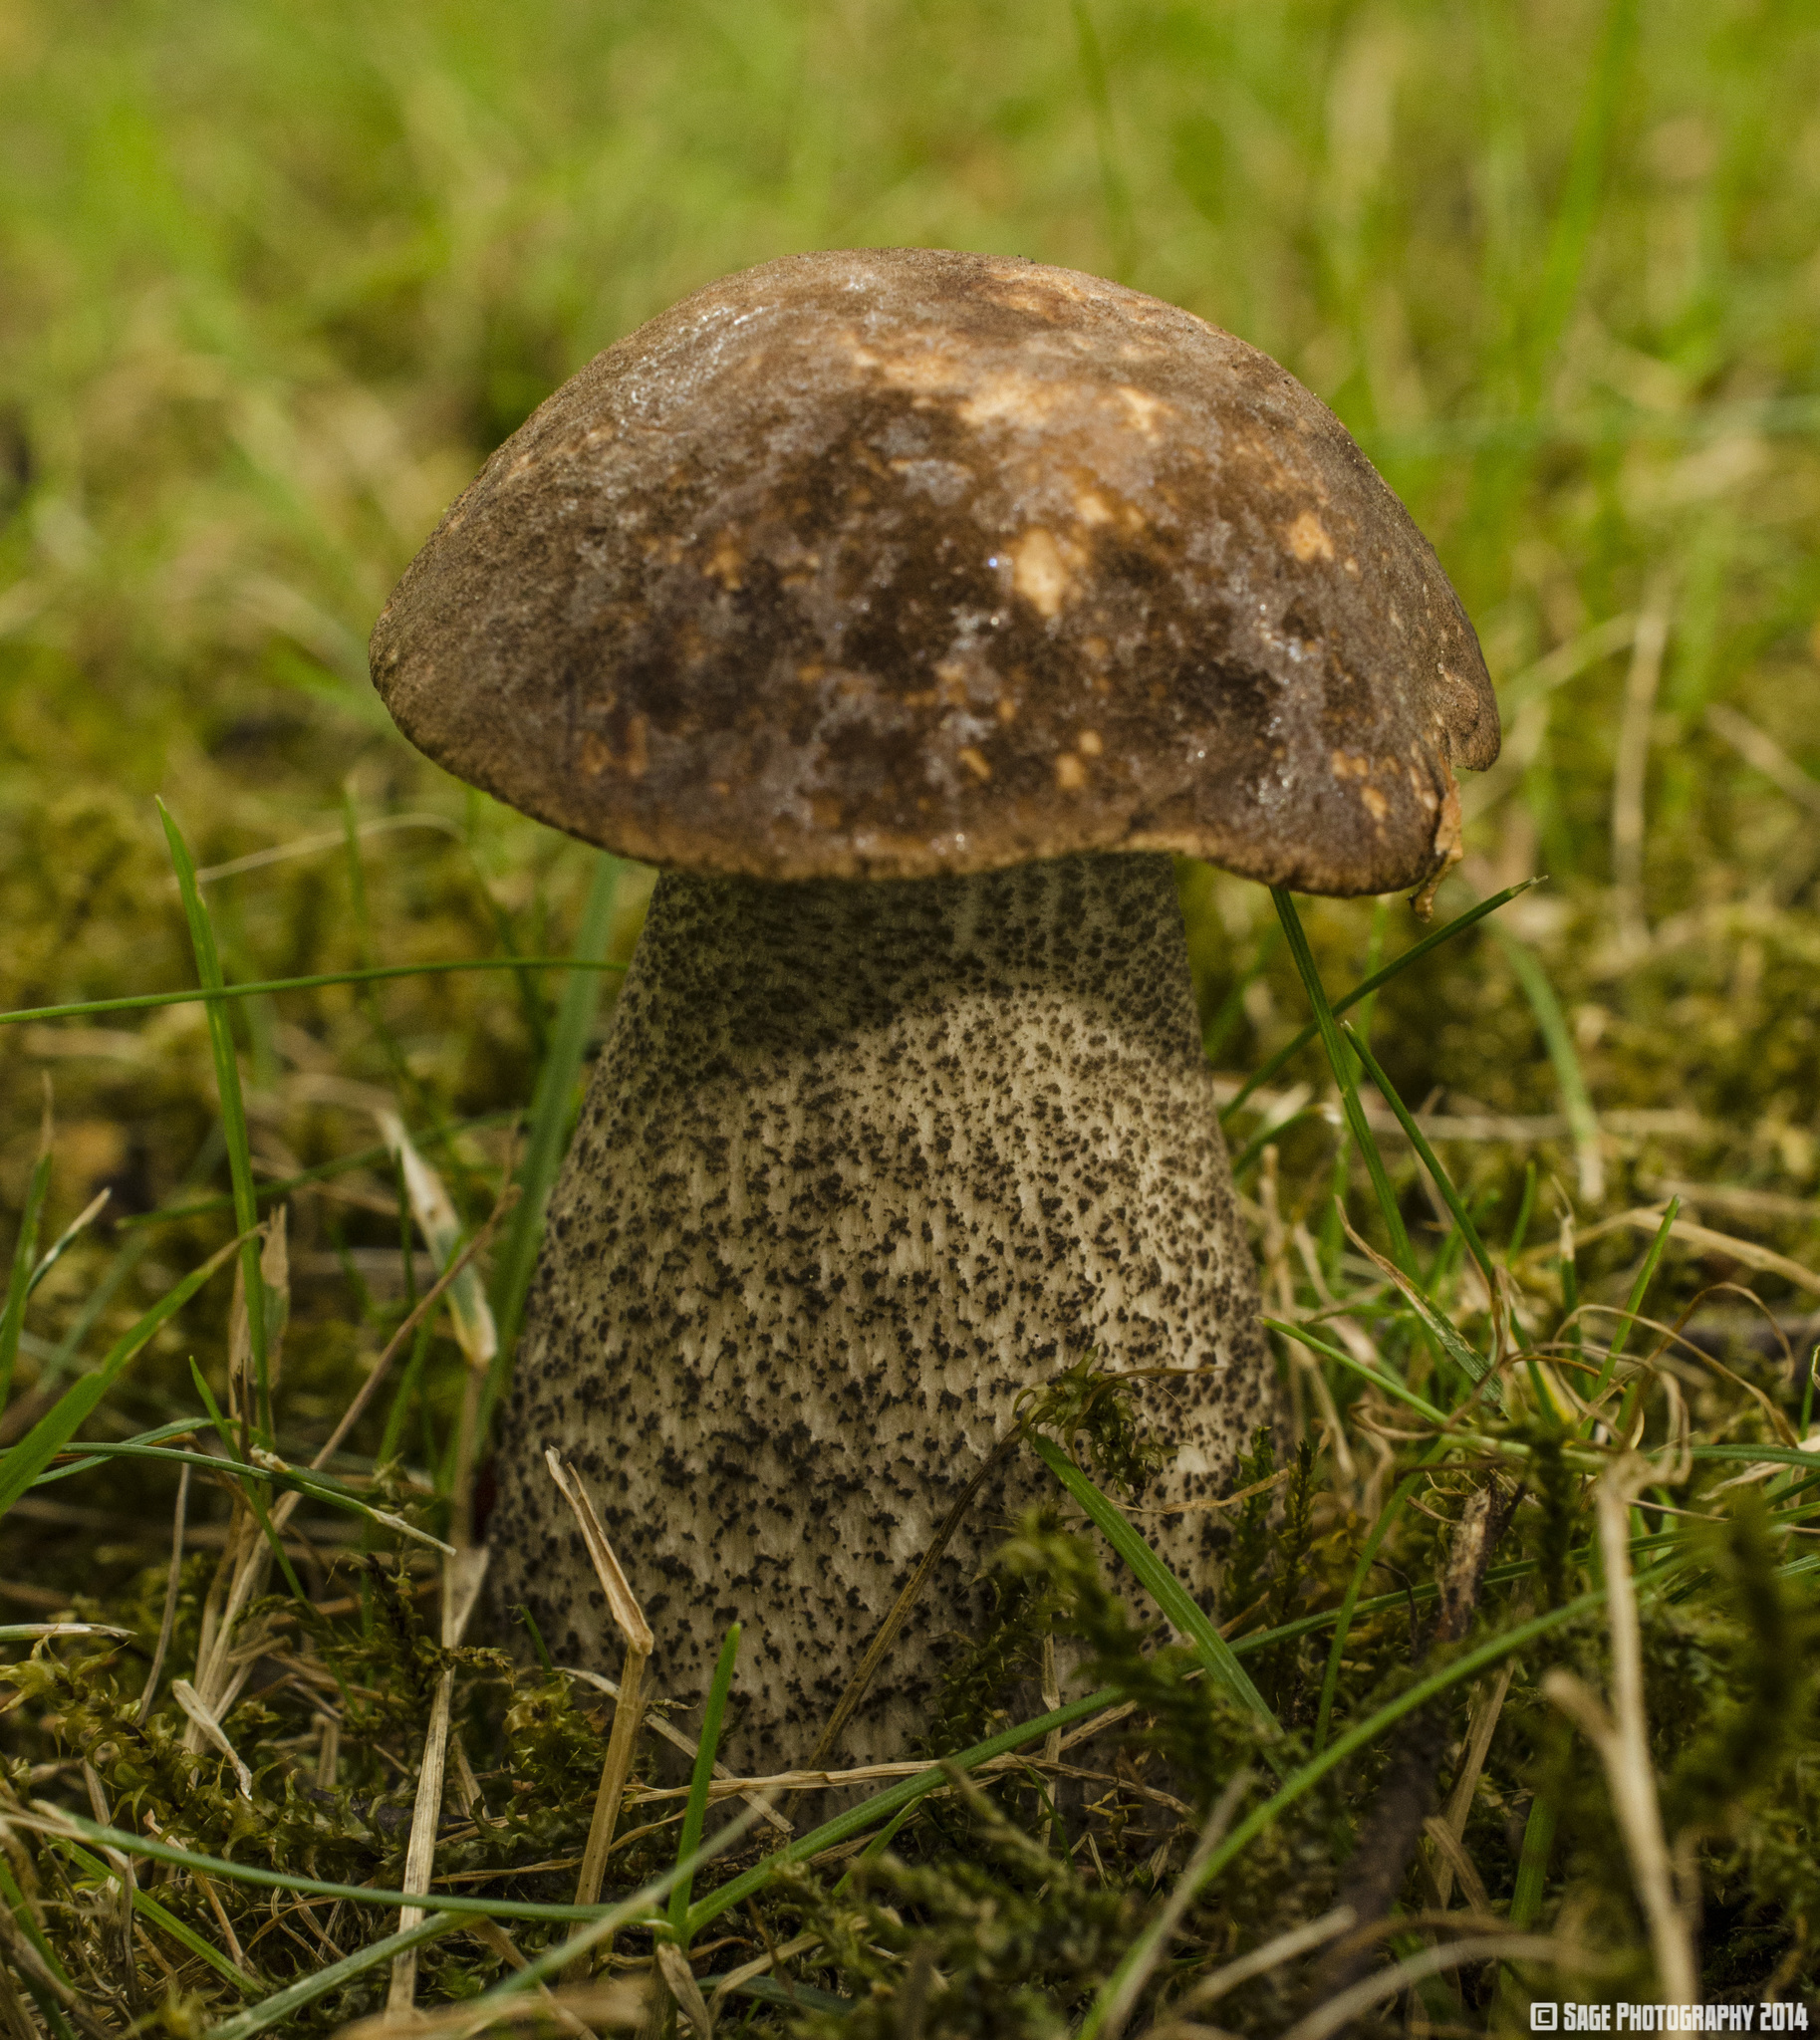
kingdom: Fungi
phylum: Basidiomycota
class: Agaricomycetes
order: Boletales
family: Boletaceae
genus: Leccinum
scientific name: Leccinum scabrum
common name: Blushing bolete
